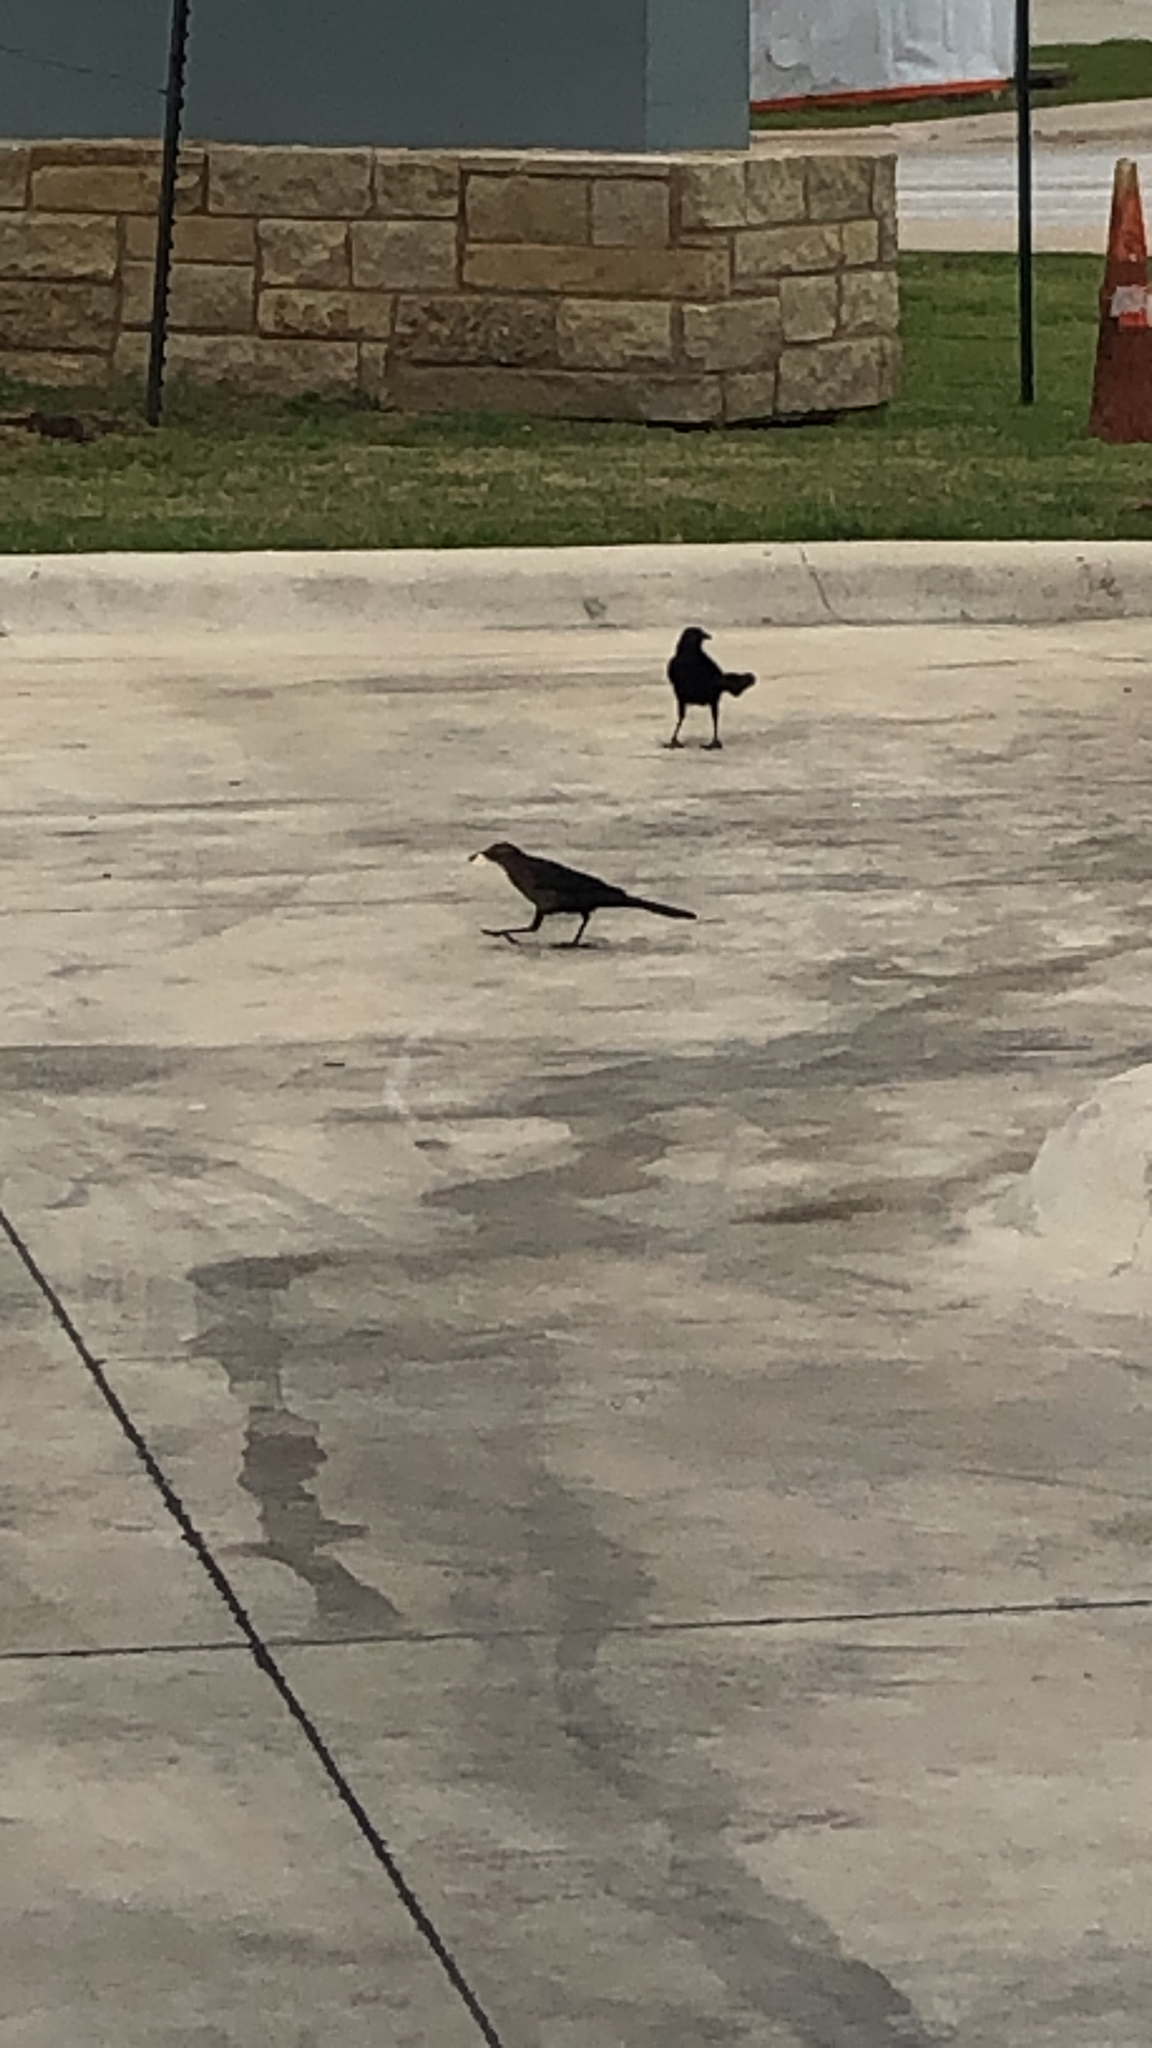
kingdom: Animalia
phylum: Chordata
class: Aves
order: Passeriformes
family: Icteridae
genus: Quiscalus
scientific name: Quiscalus mexicanus
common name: Great-tailed grackle
